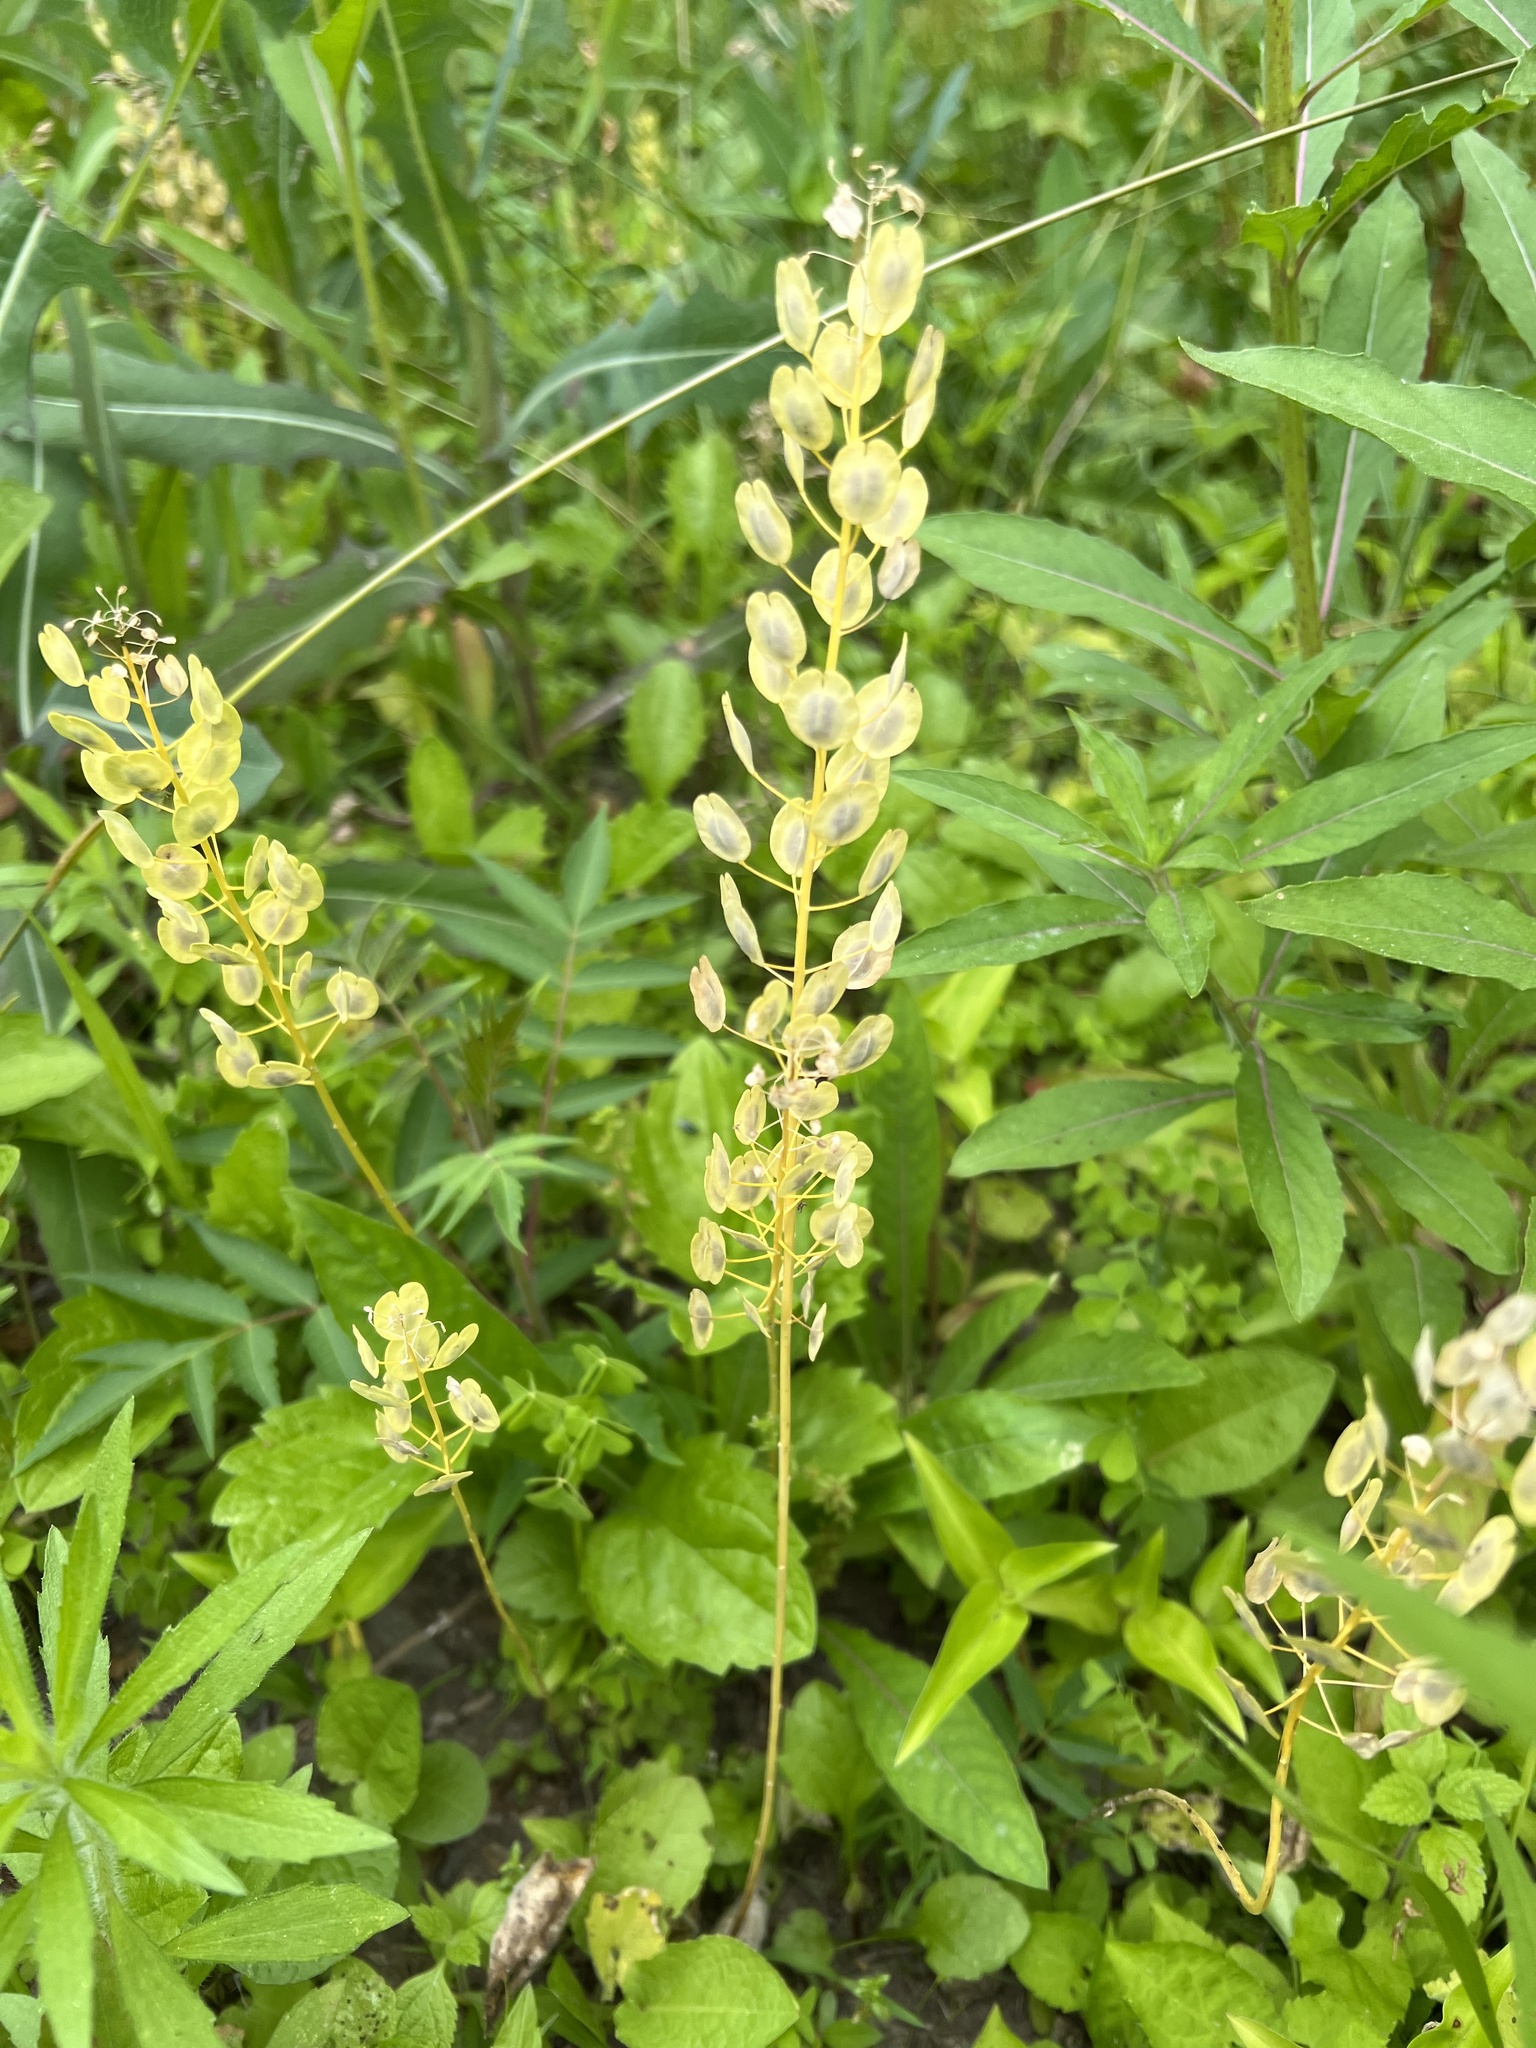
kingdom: Plantae
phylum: Tracheophyta
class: Magnoliopsida
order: Brassicales
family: Brassicaceae
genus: Thlaspi
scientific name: Thlaspi arvense
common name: Field pennycress
